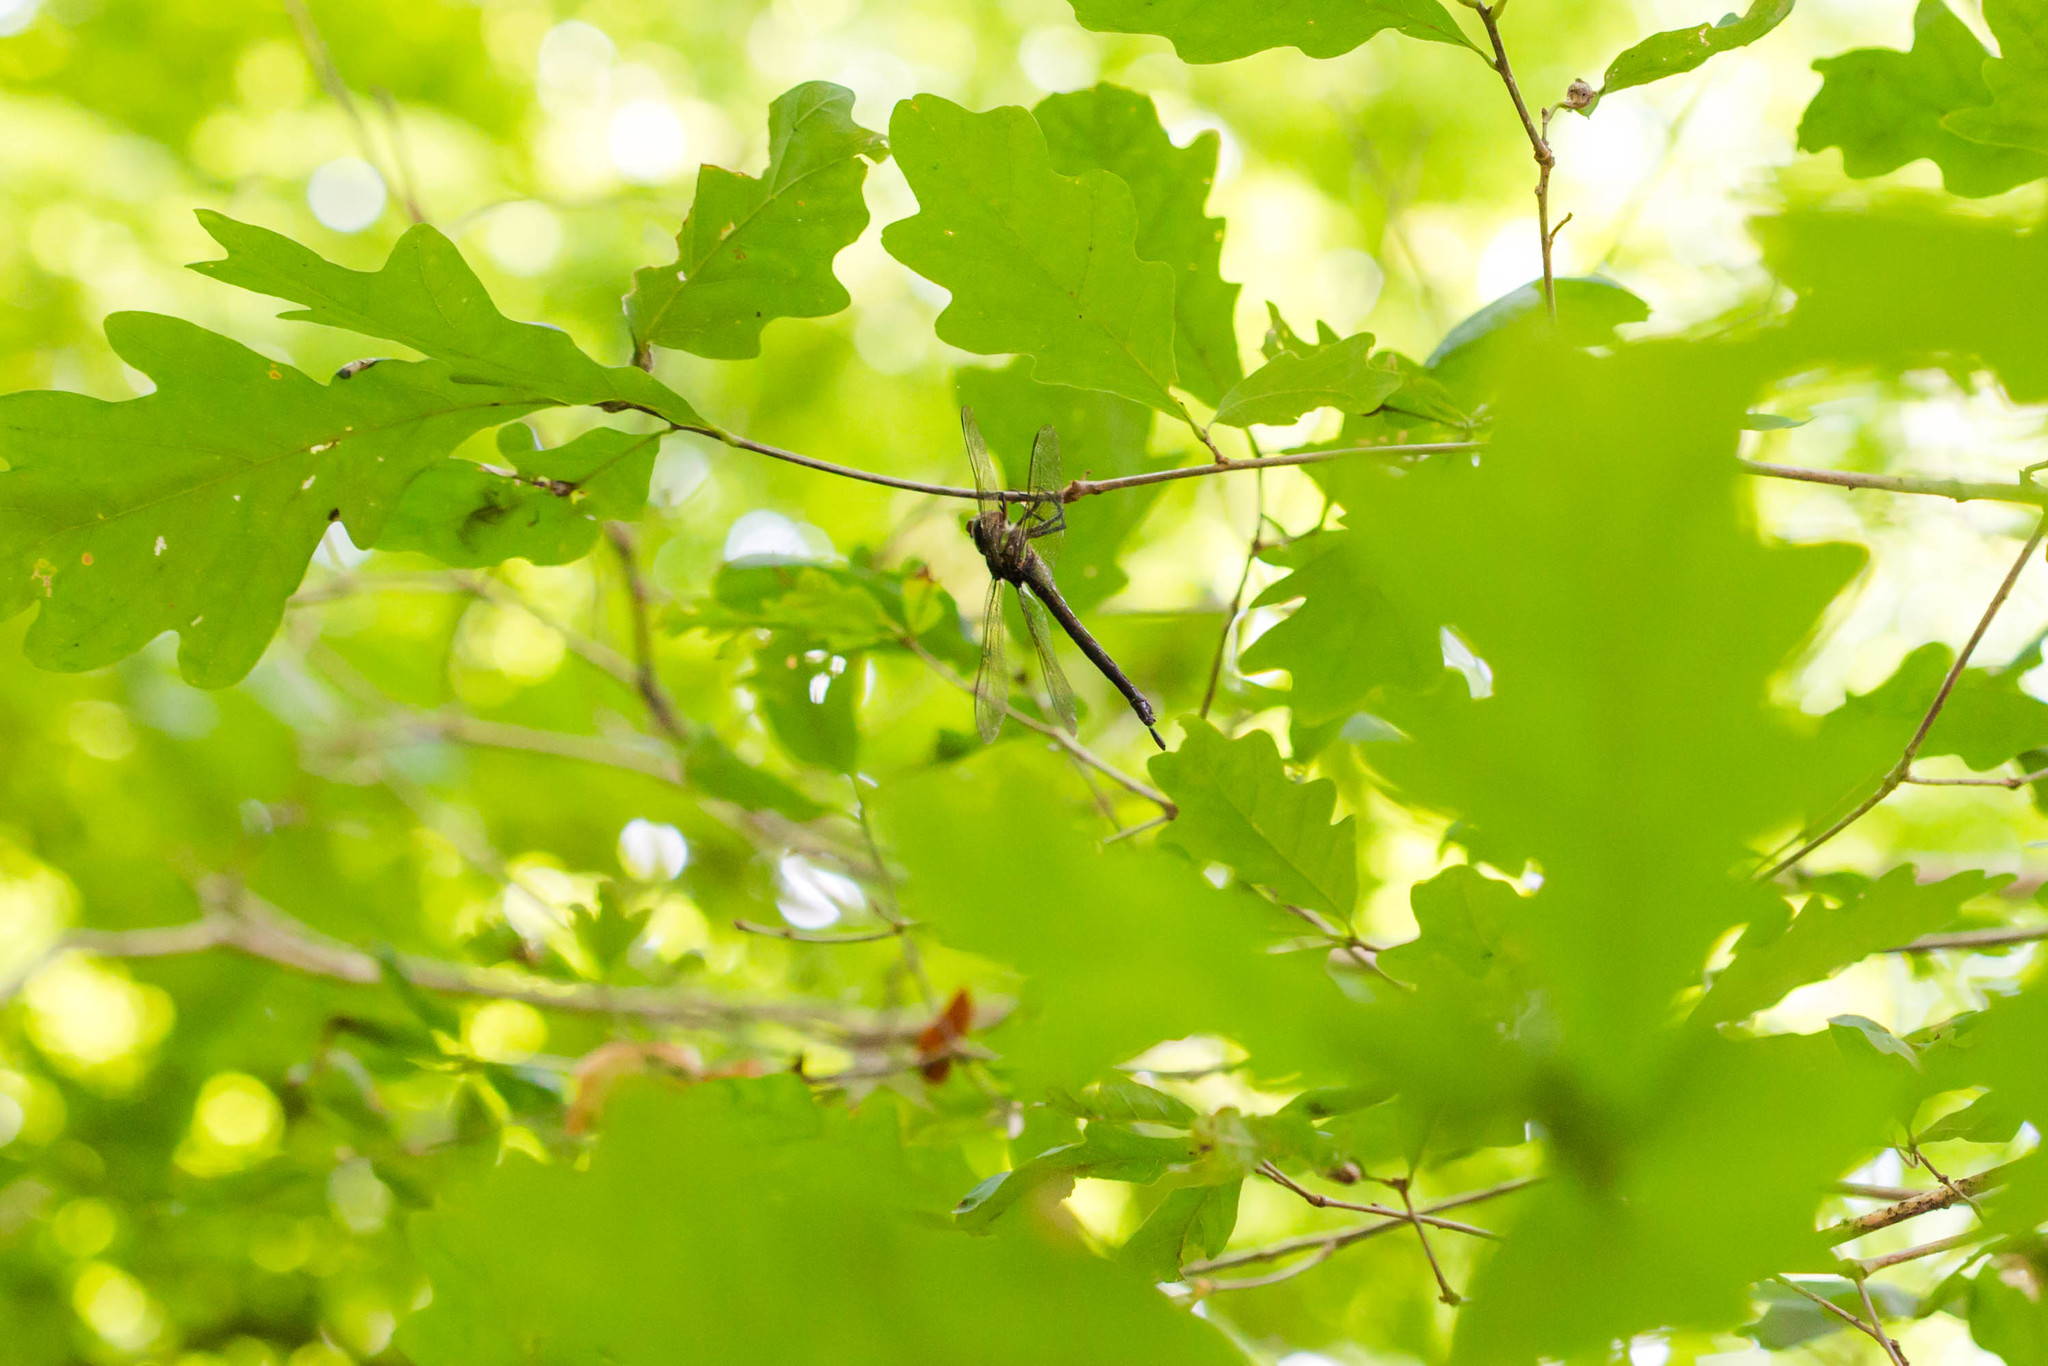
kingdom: Animalia
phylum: Arthropoda
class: Insecta
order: Odonata
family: Aeshnidae
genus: Epiaeschna
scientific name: Epiaeschna heros
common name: Swamp darner
